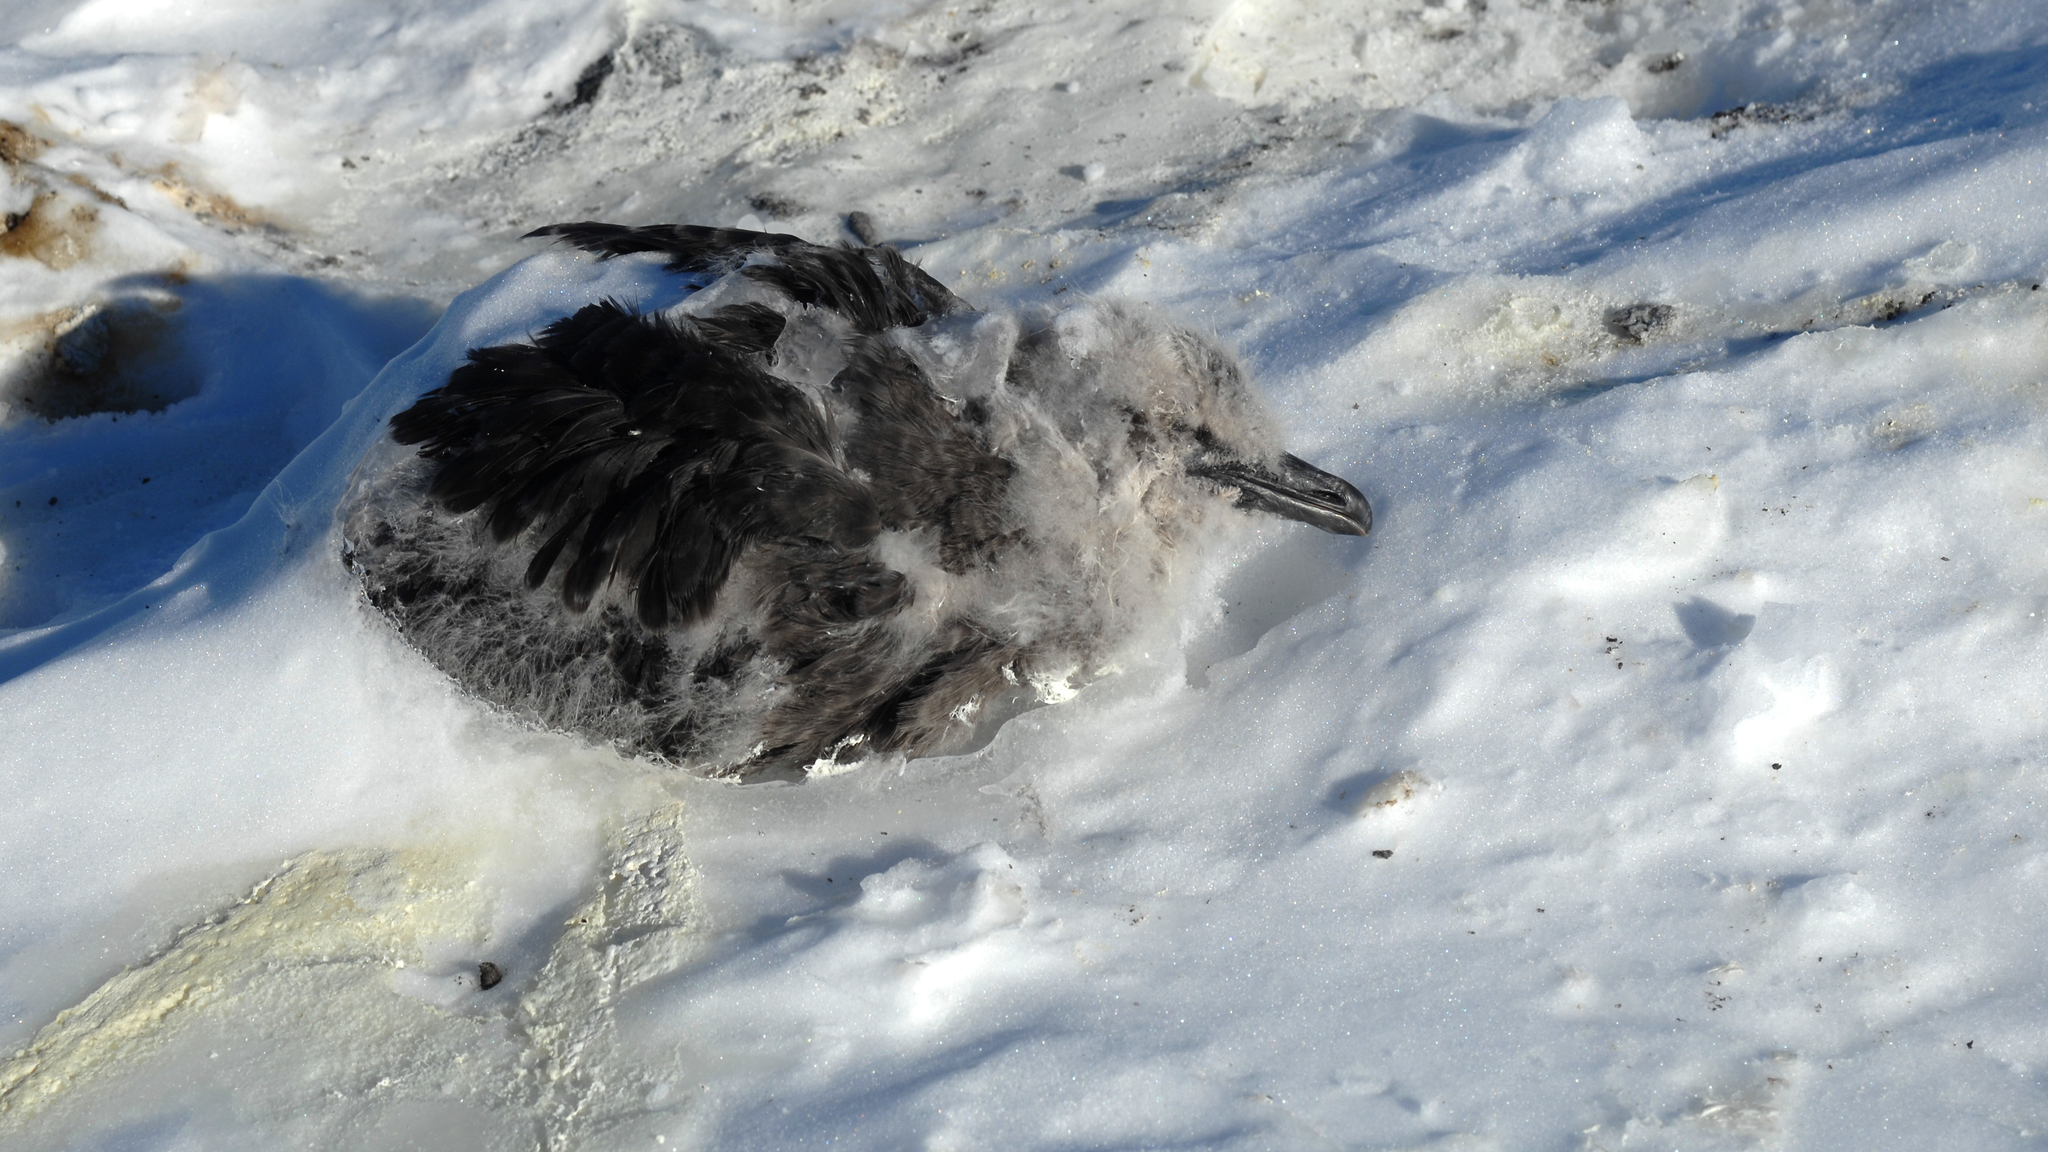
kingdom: Animalia
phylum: Chordata
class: Aves
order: Charadriiformes
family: Stercorariidae
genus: Stercorarius
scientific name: Stercorarius maccormicki
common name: South polar skua
